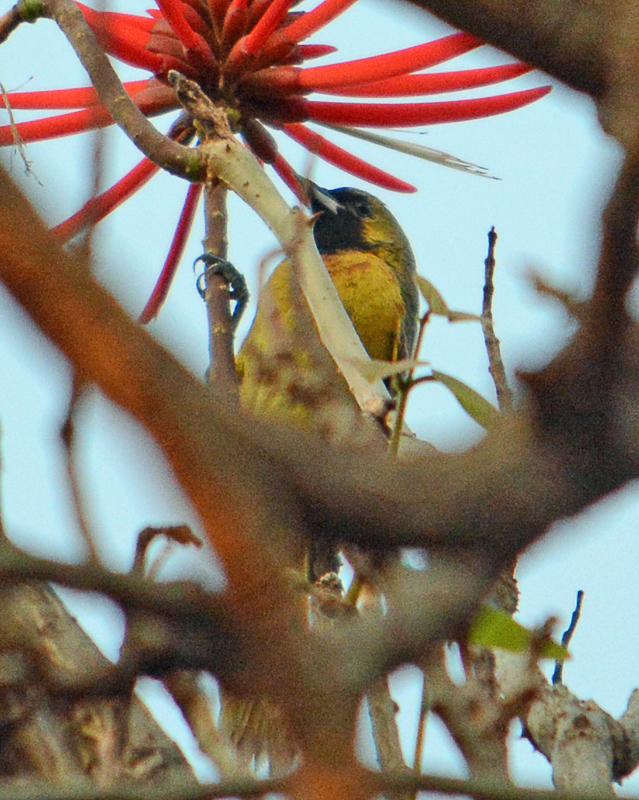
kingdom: Animalia
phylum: Chordata
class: Aves
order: Passeriformes
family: Icteridae
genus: Icterus
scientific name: Icterus spurius
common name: Orchard oriole
